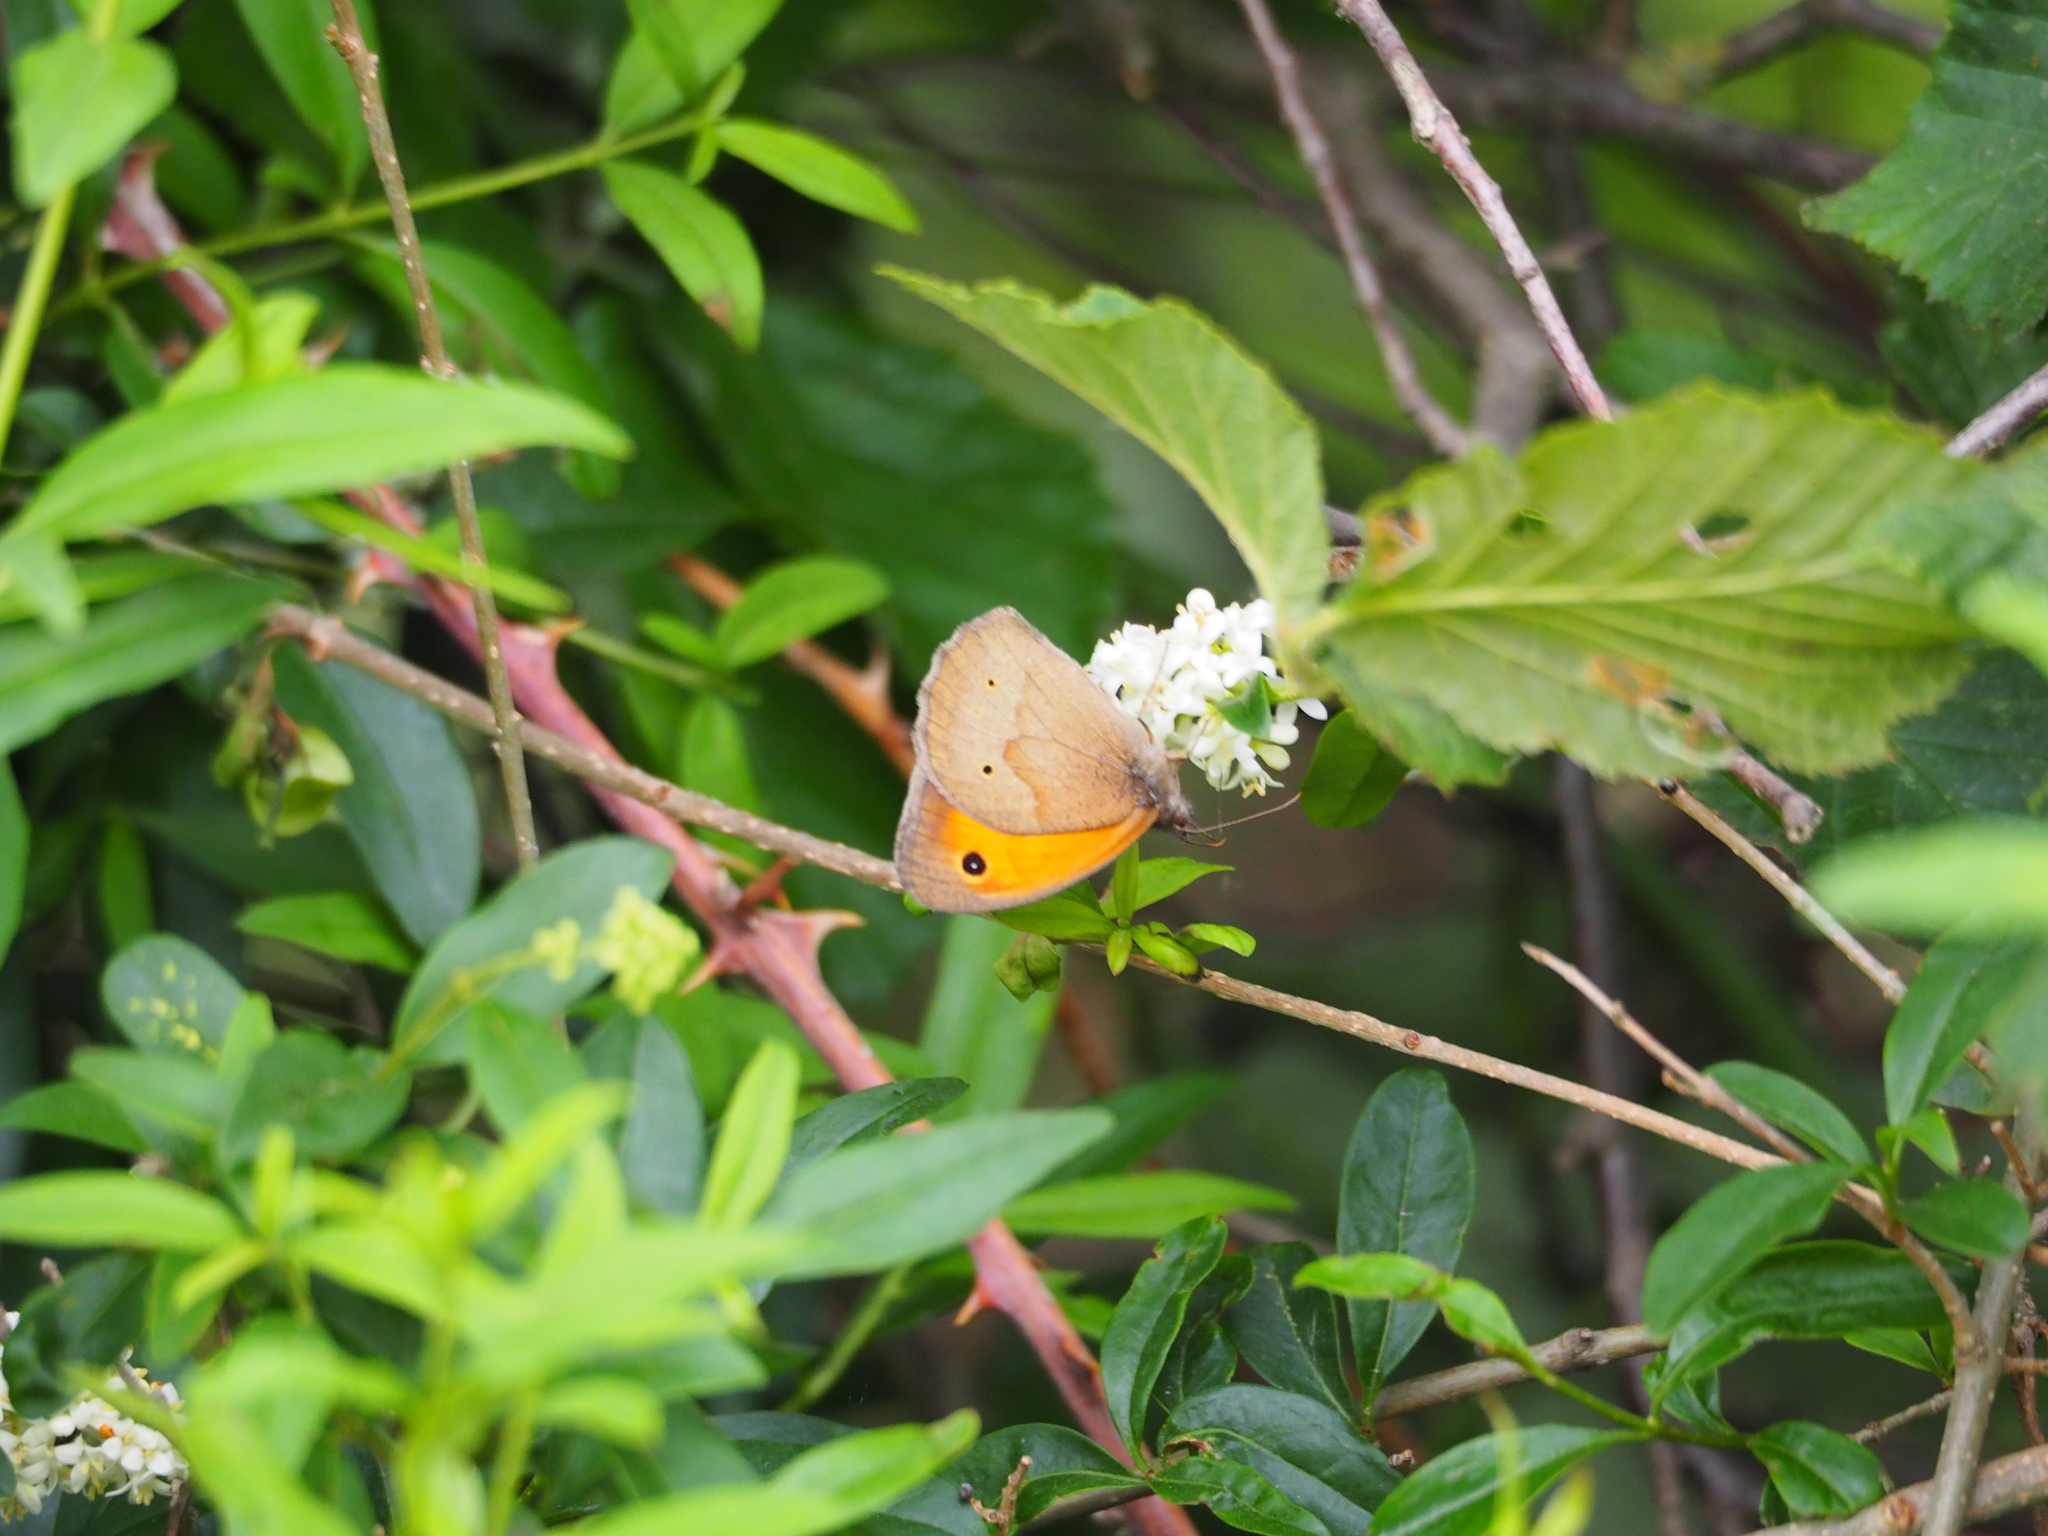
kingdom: Animalia
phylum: Arthropoda
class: Insecta
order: Lepidoptera
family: Nymphalidae
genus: Maniola
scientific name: Maniola jurtina
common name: Meadow brown
